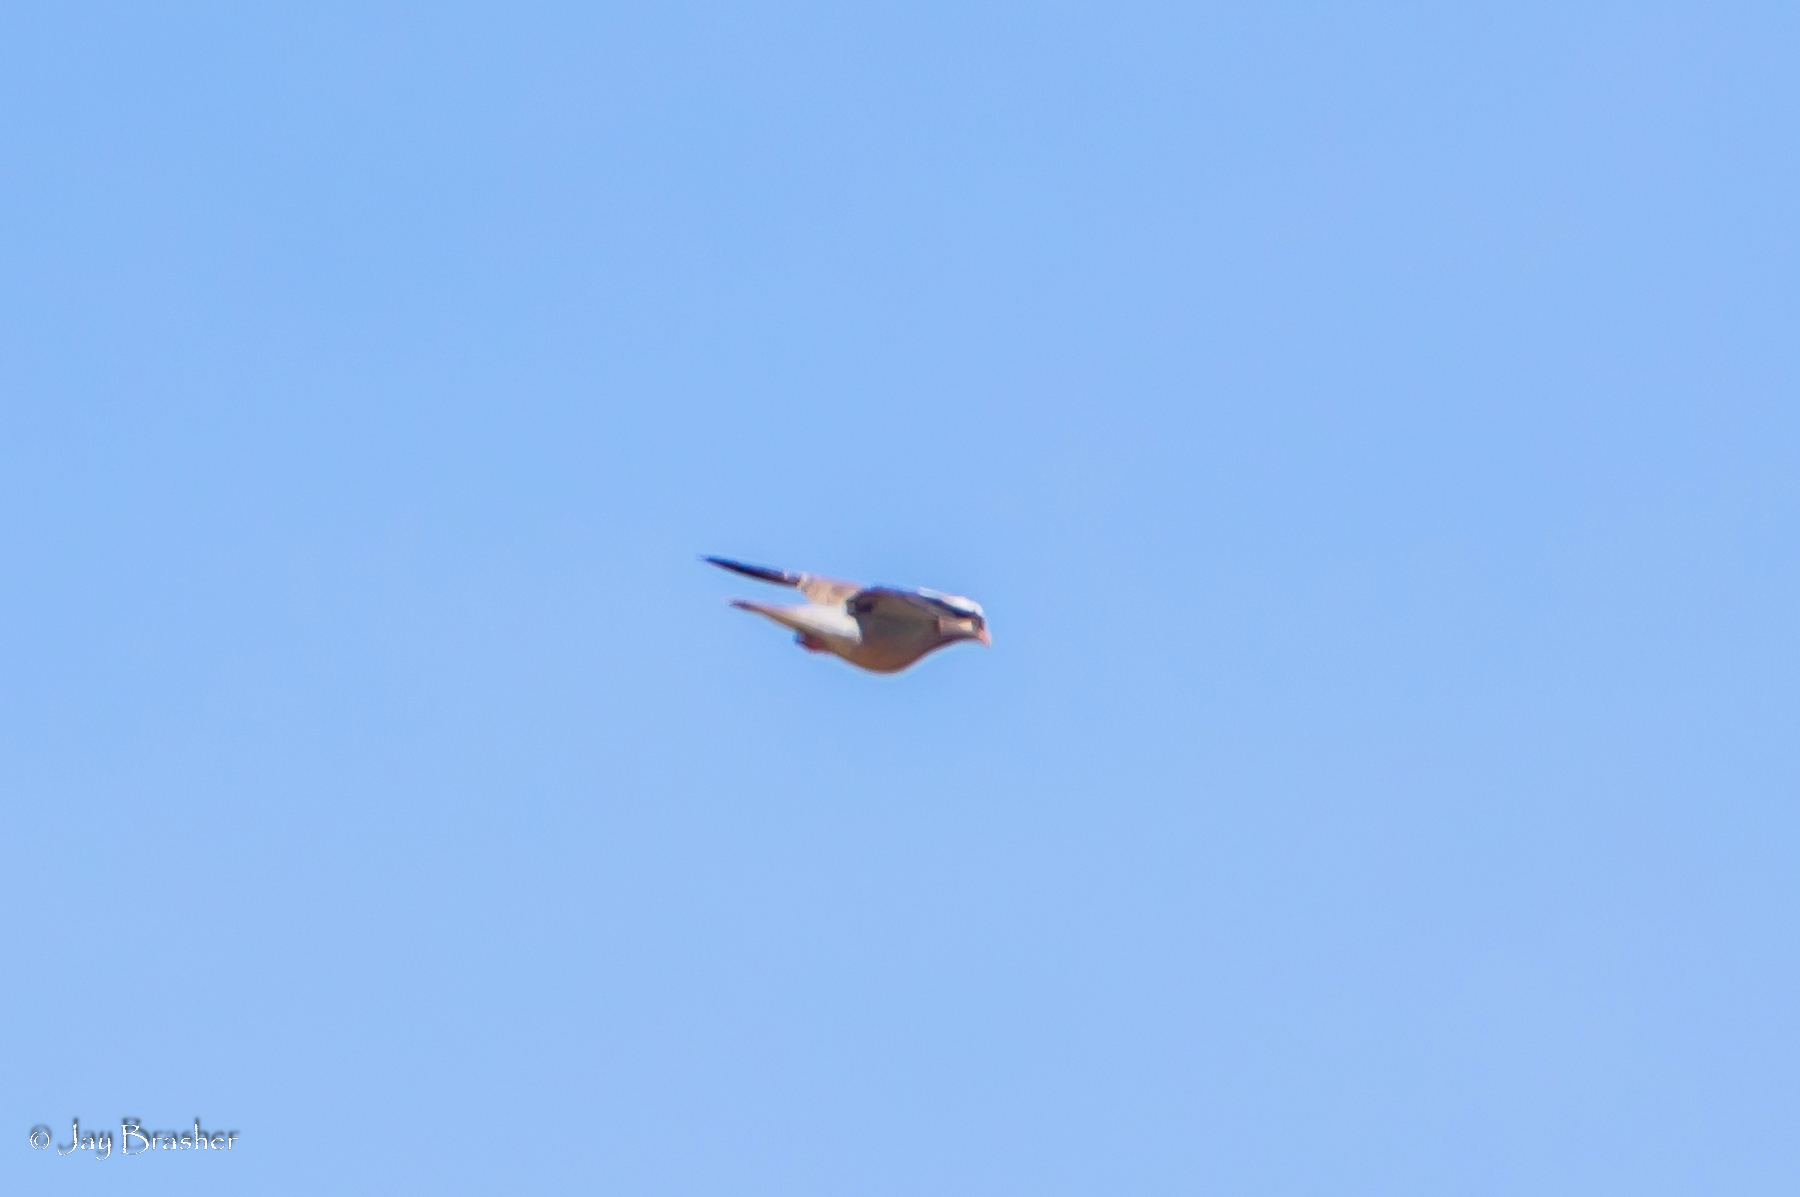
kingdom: Animalia
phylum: Chordata
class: Aves
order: Columbiformes
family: Columbidae
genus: Patagioenas
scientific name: Patagioenas corensis
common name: Bare-eyed pigeon
